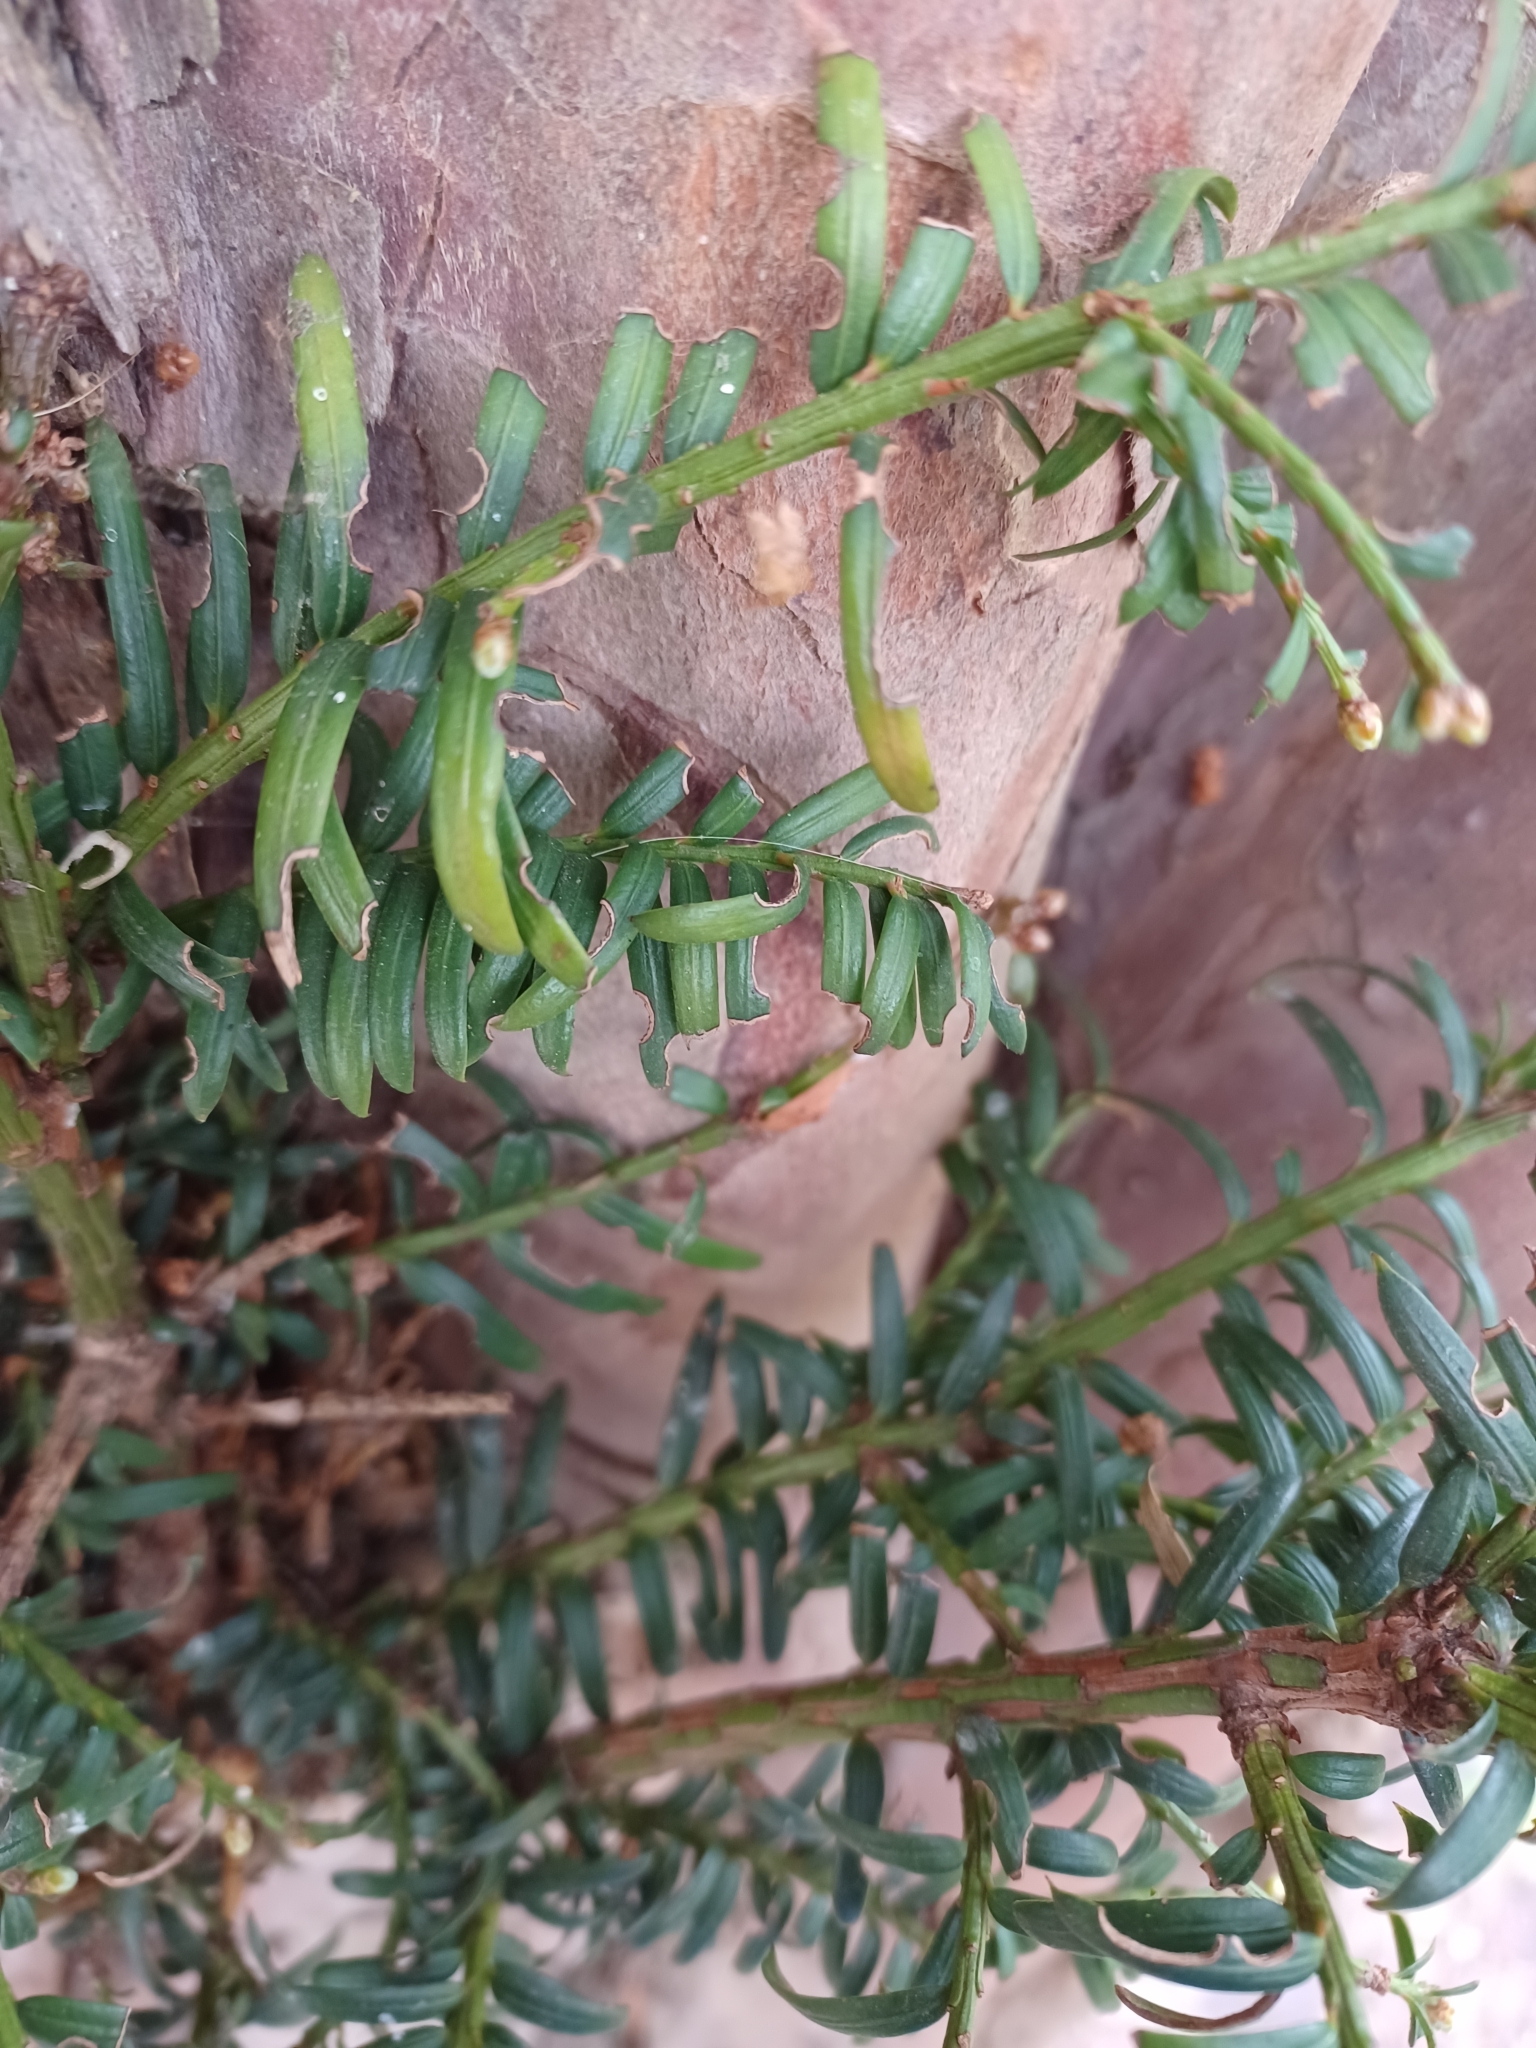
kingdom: Plantae
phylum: Tracheophyta
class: Pinopsida
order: Pinales
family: Taxaceae
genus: Taxus
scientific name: Taxus baccata
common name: Yew
